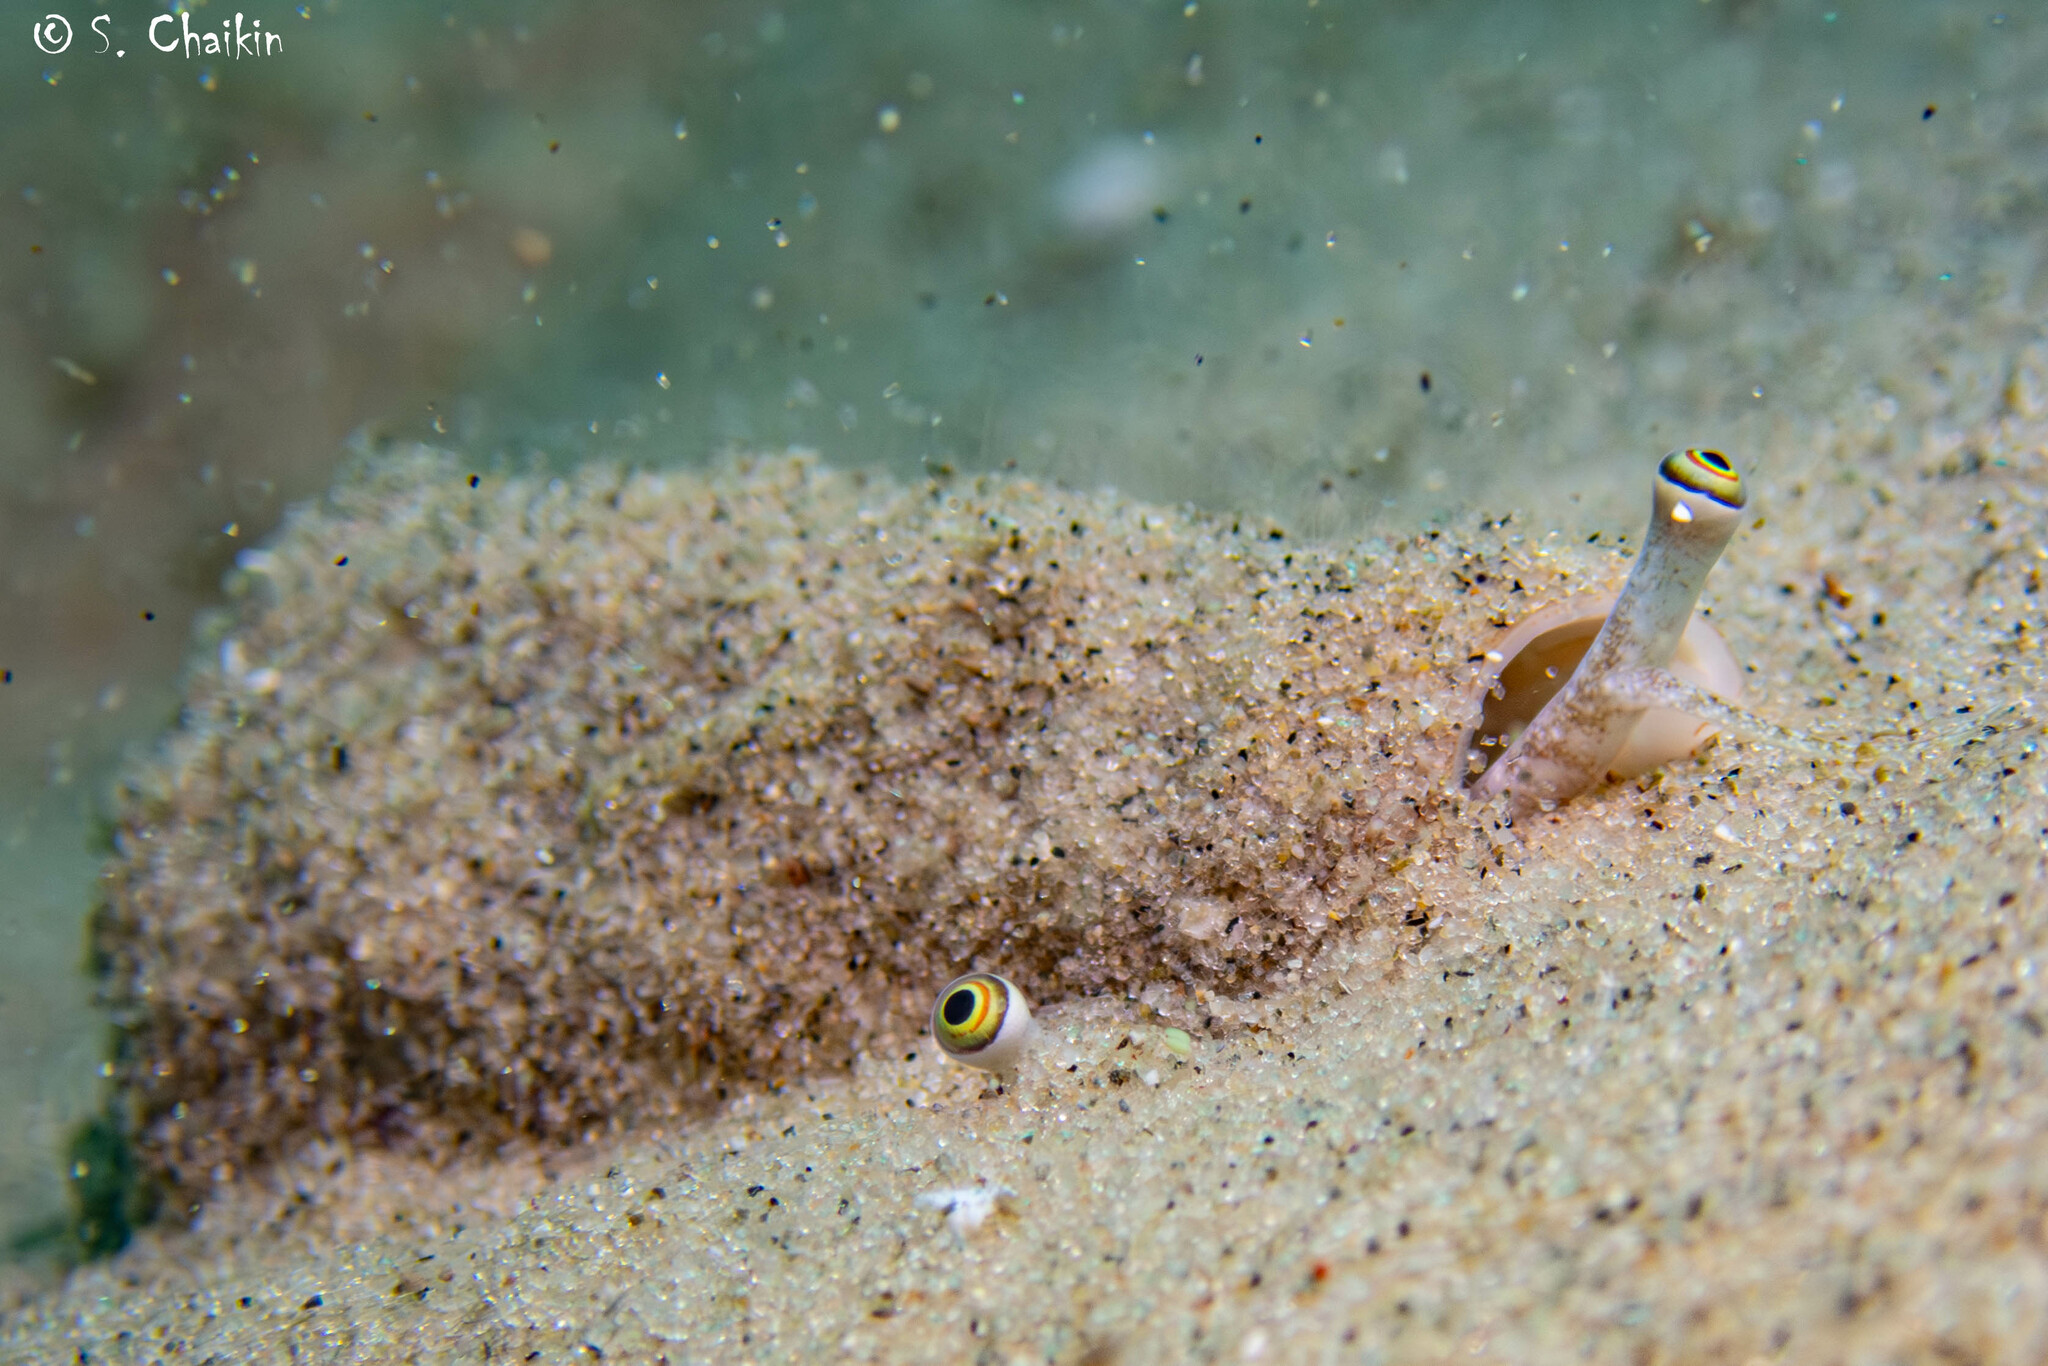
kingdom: Animalia
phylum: Mollusca
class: Gastropoda
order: Littorinimorpha
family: Strombidae
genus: Conomurex
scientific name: Conomurex persicus
